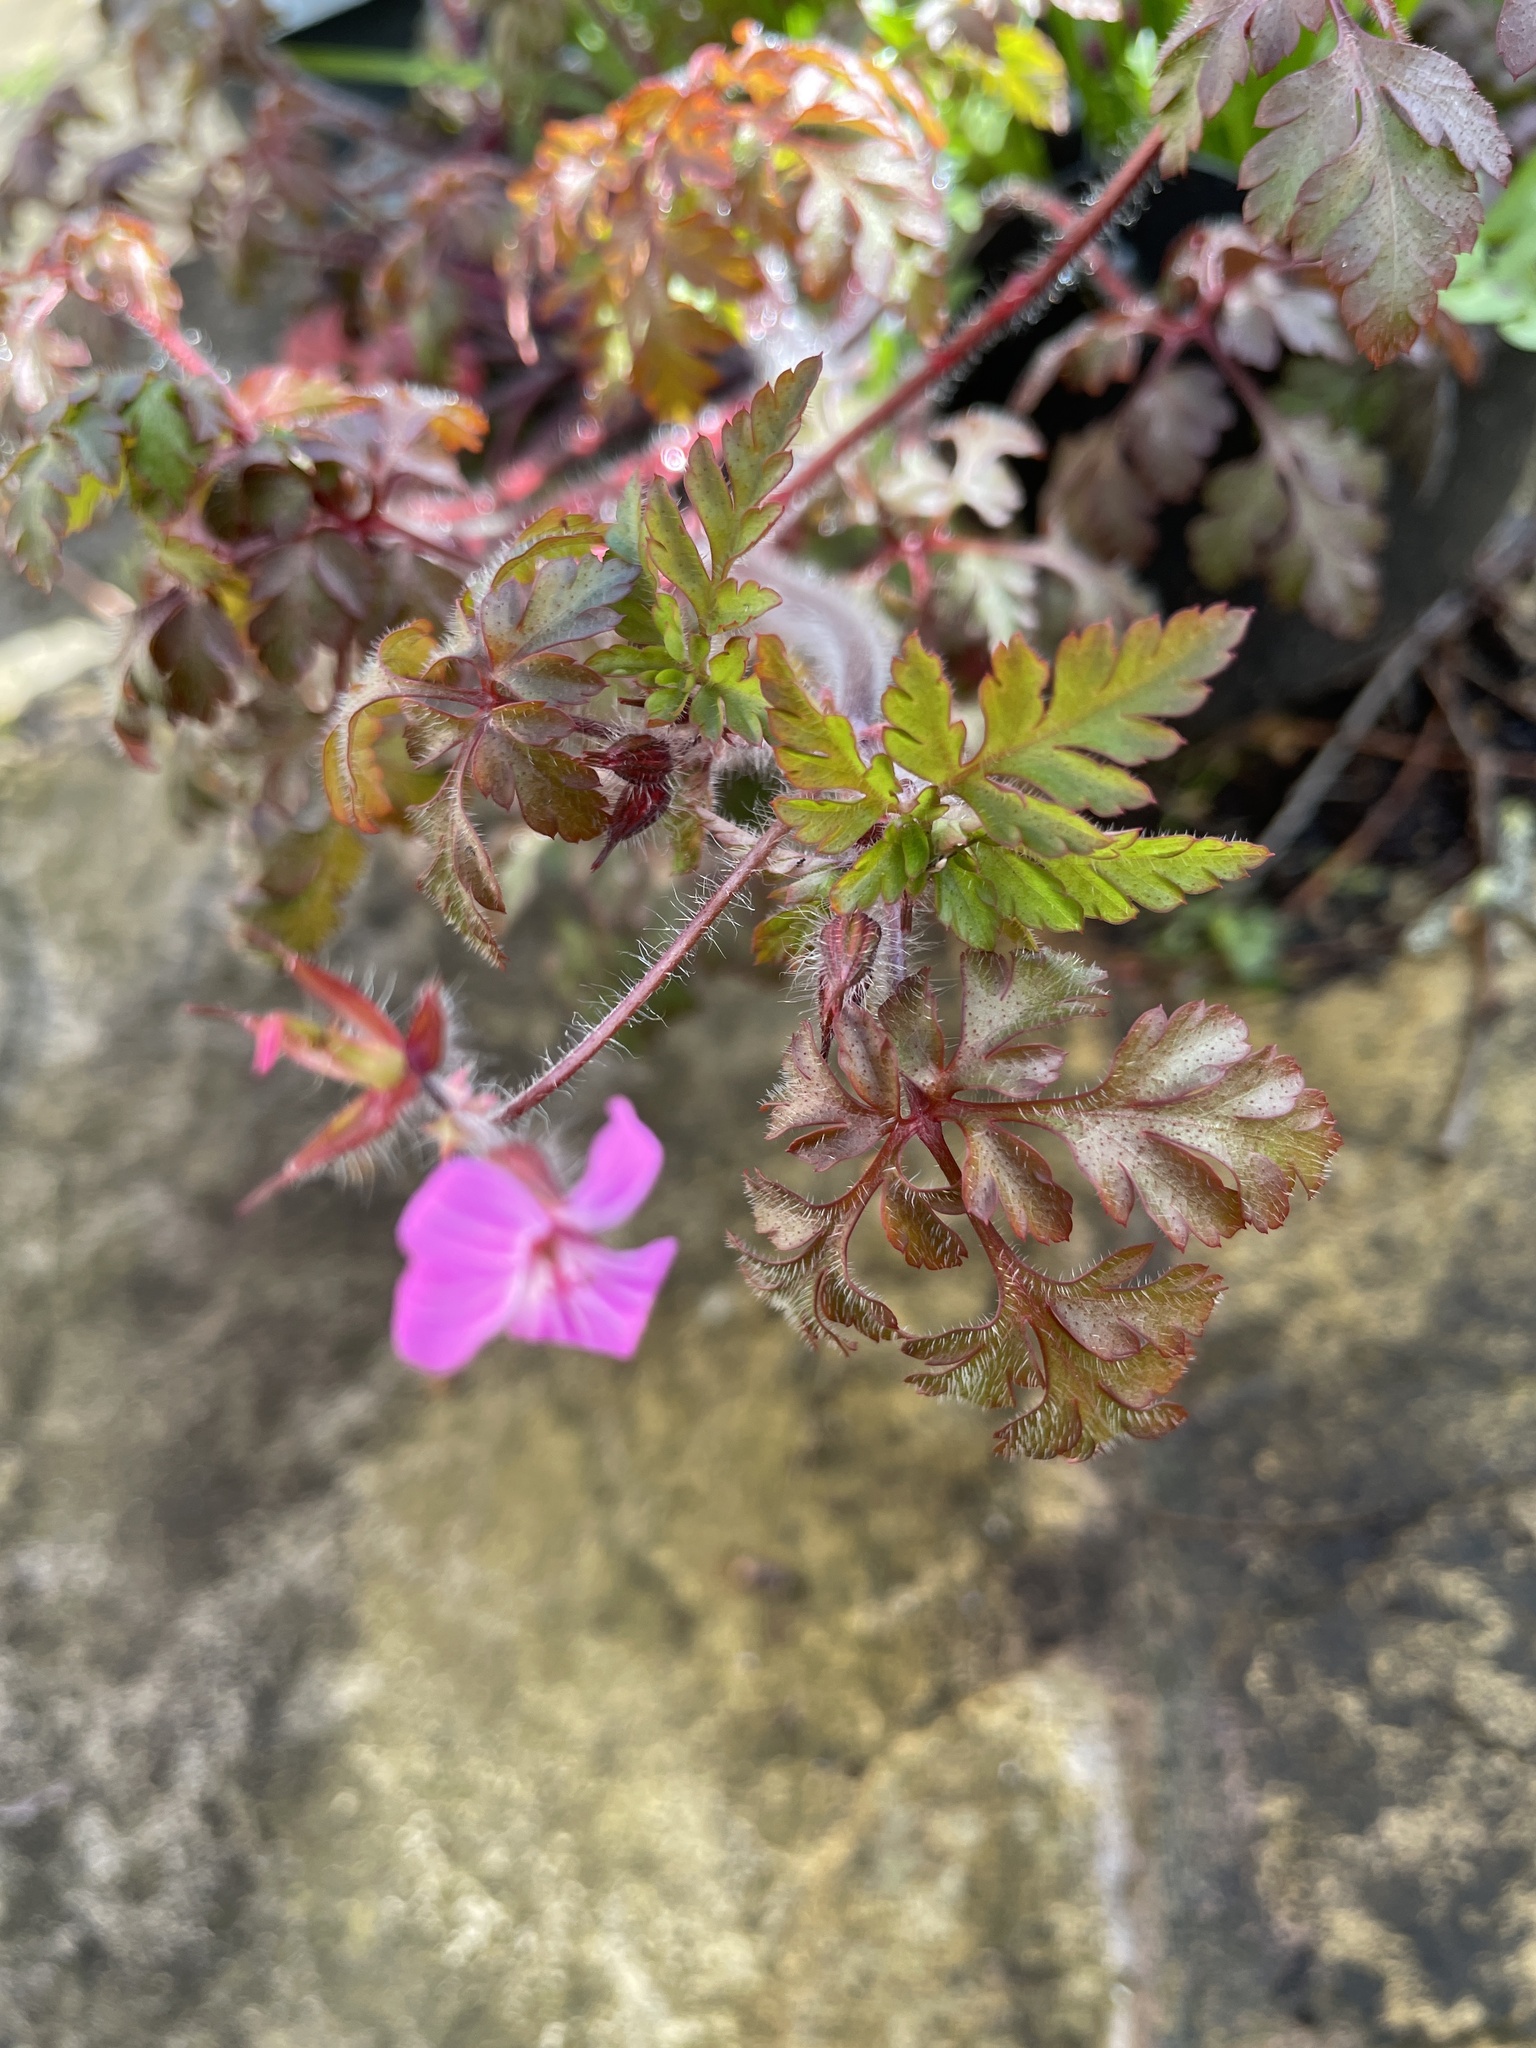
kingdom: Plantae
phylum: Tracheophyta
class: Magnoliopsida
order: Geraniales
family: Geraniaceae
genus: Geranium
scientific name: Geranium robertianum
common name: Herb-robert
